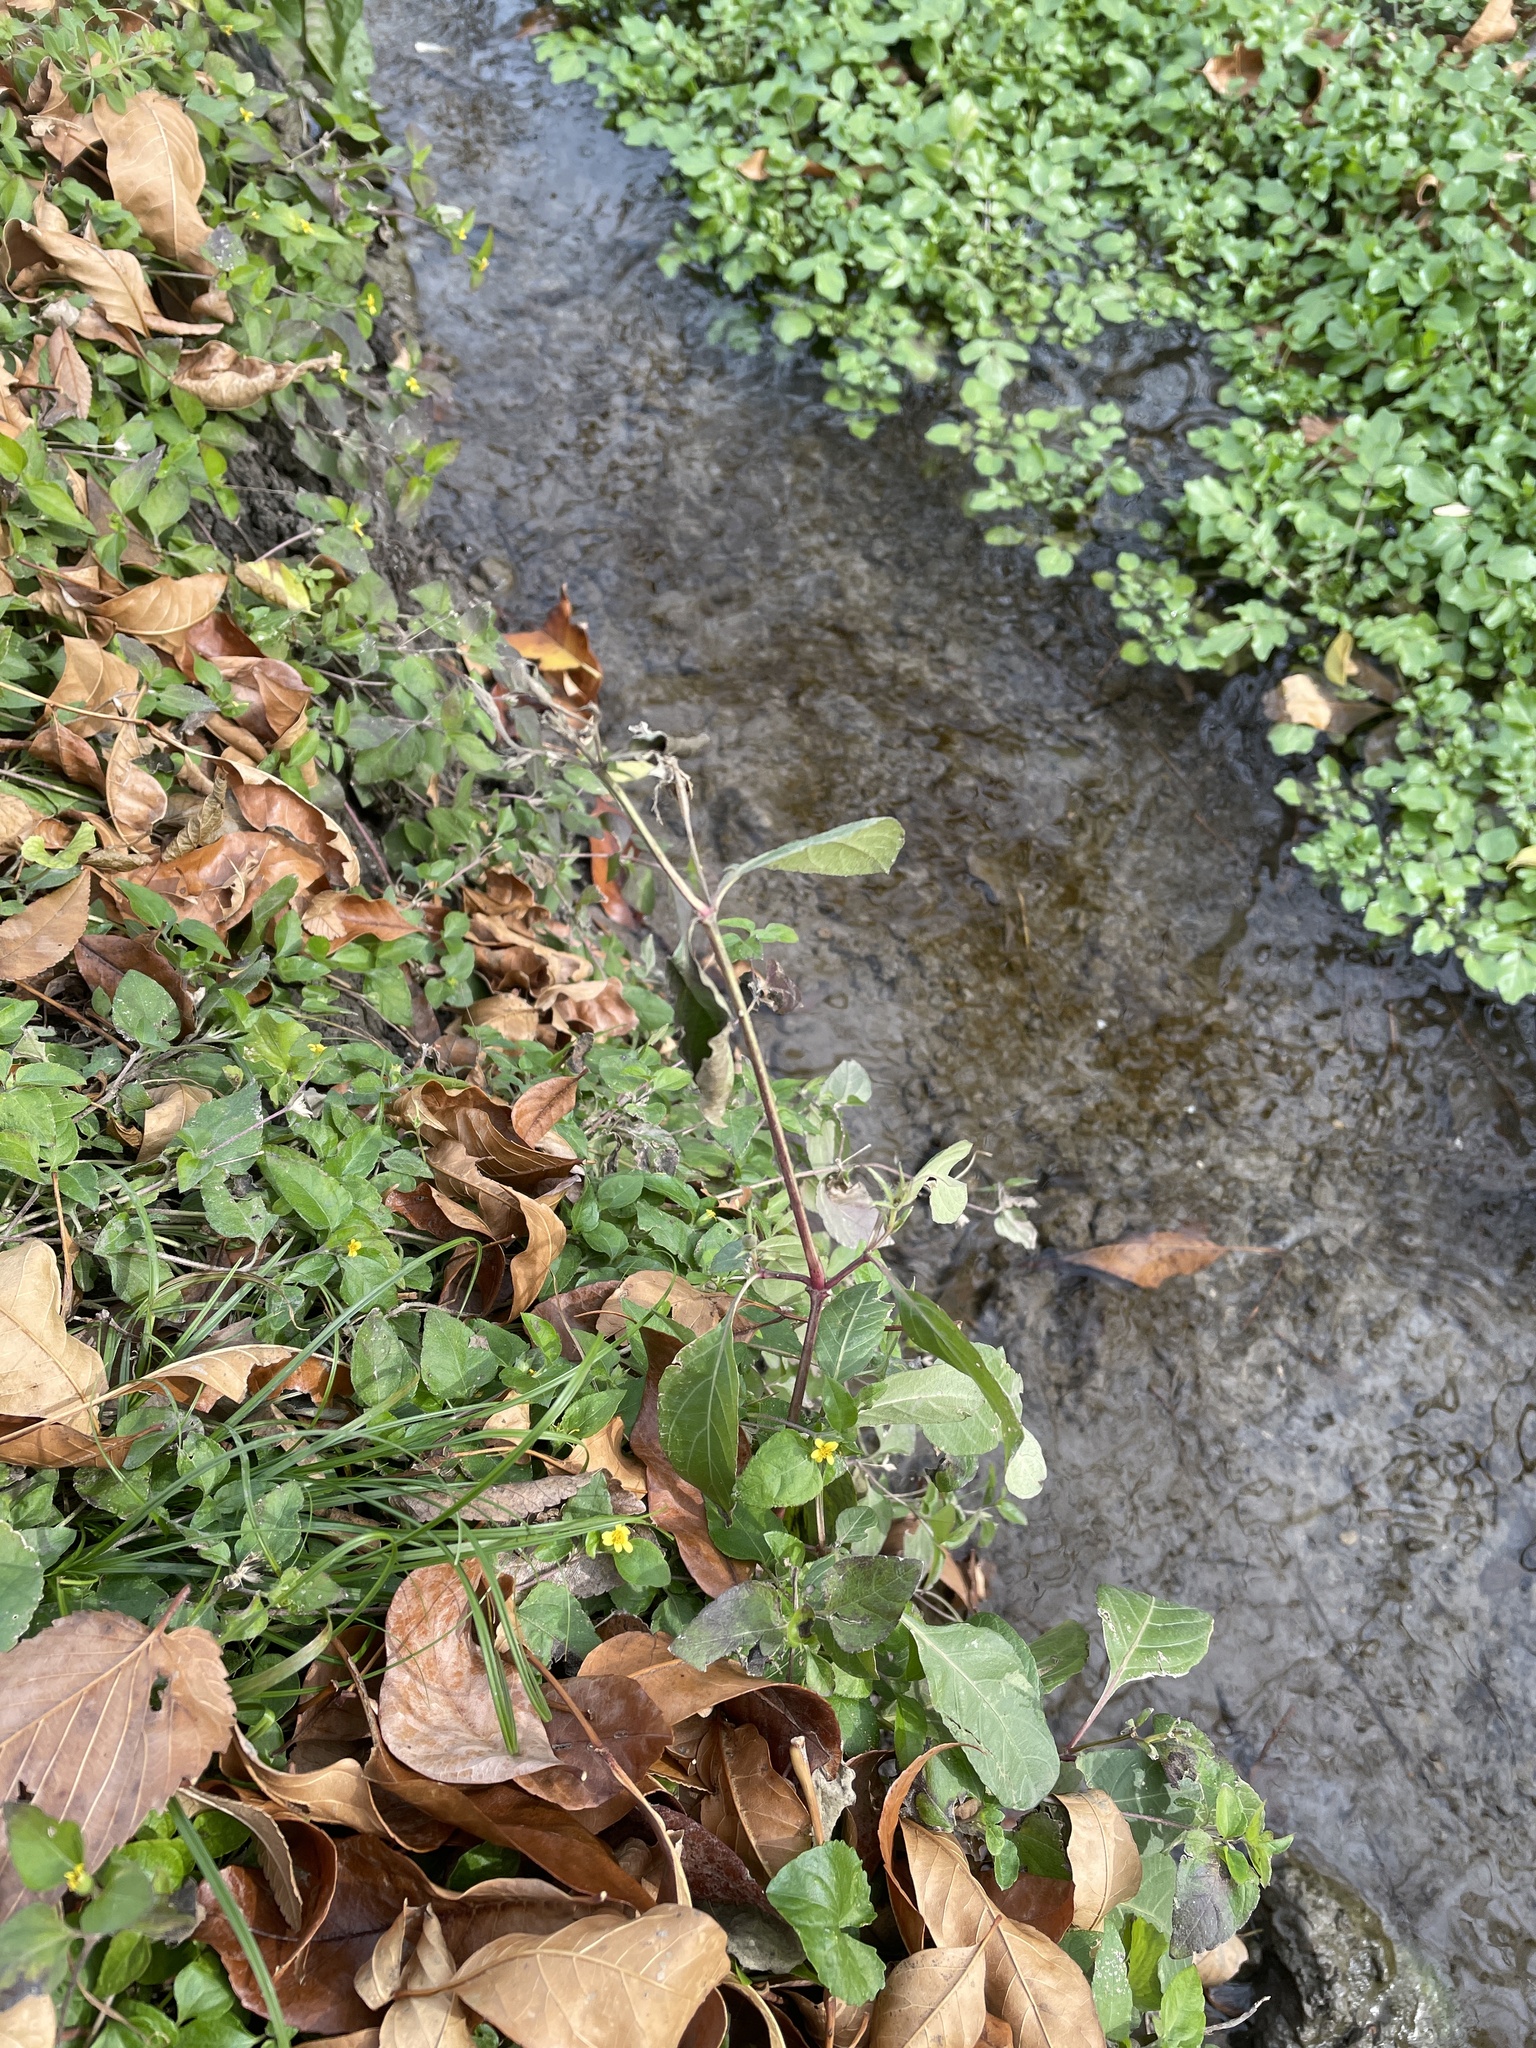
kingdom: Plantae
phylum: Tracheophyta
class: Magnoliopsida
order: Lamiales
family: Acanthaceae
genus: Ruellia
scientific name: Ruellia ciliatiflora
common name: Hairyflower wild petunia
